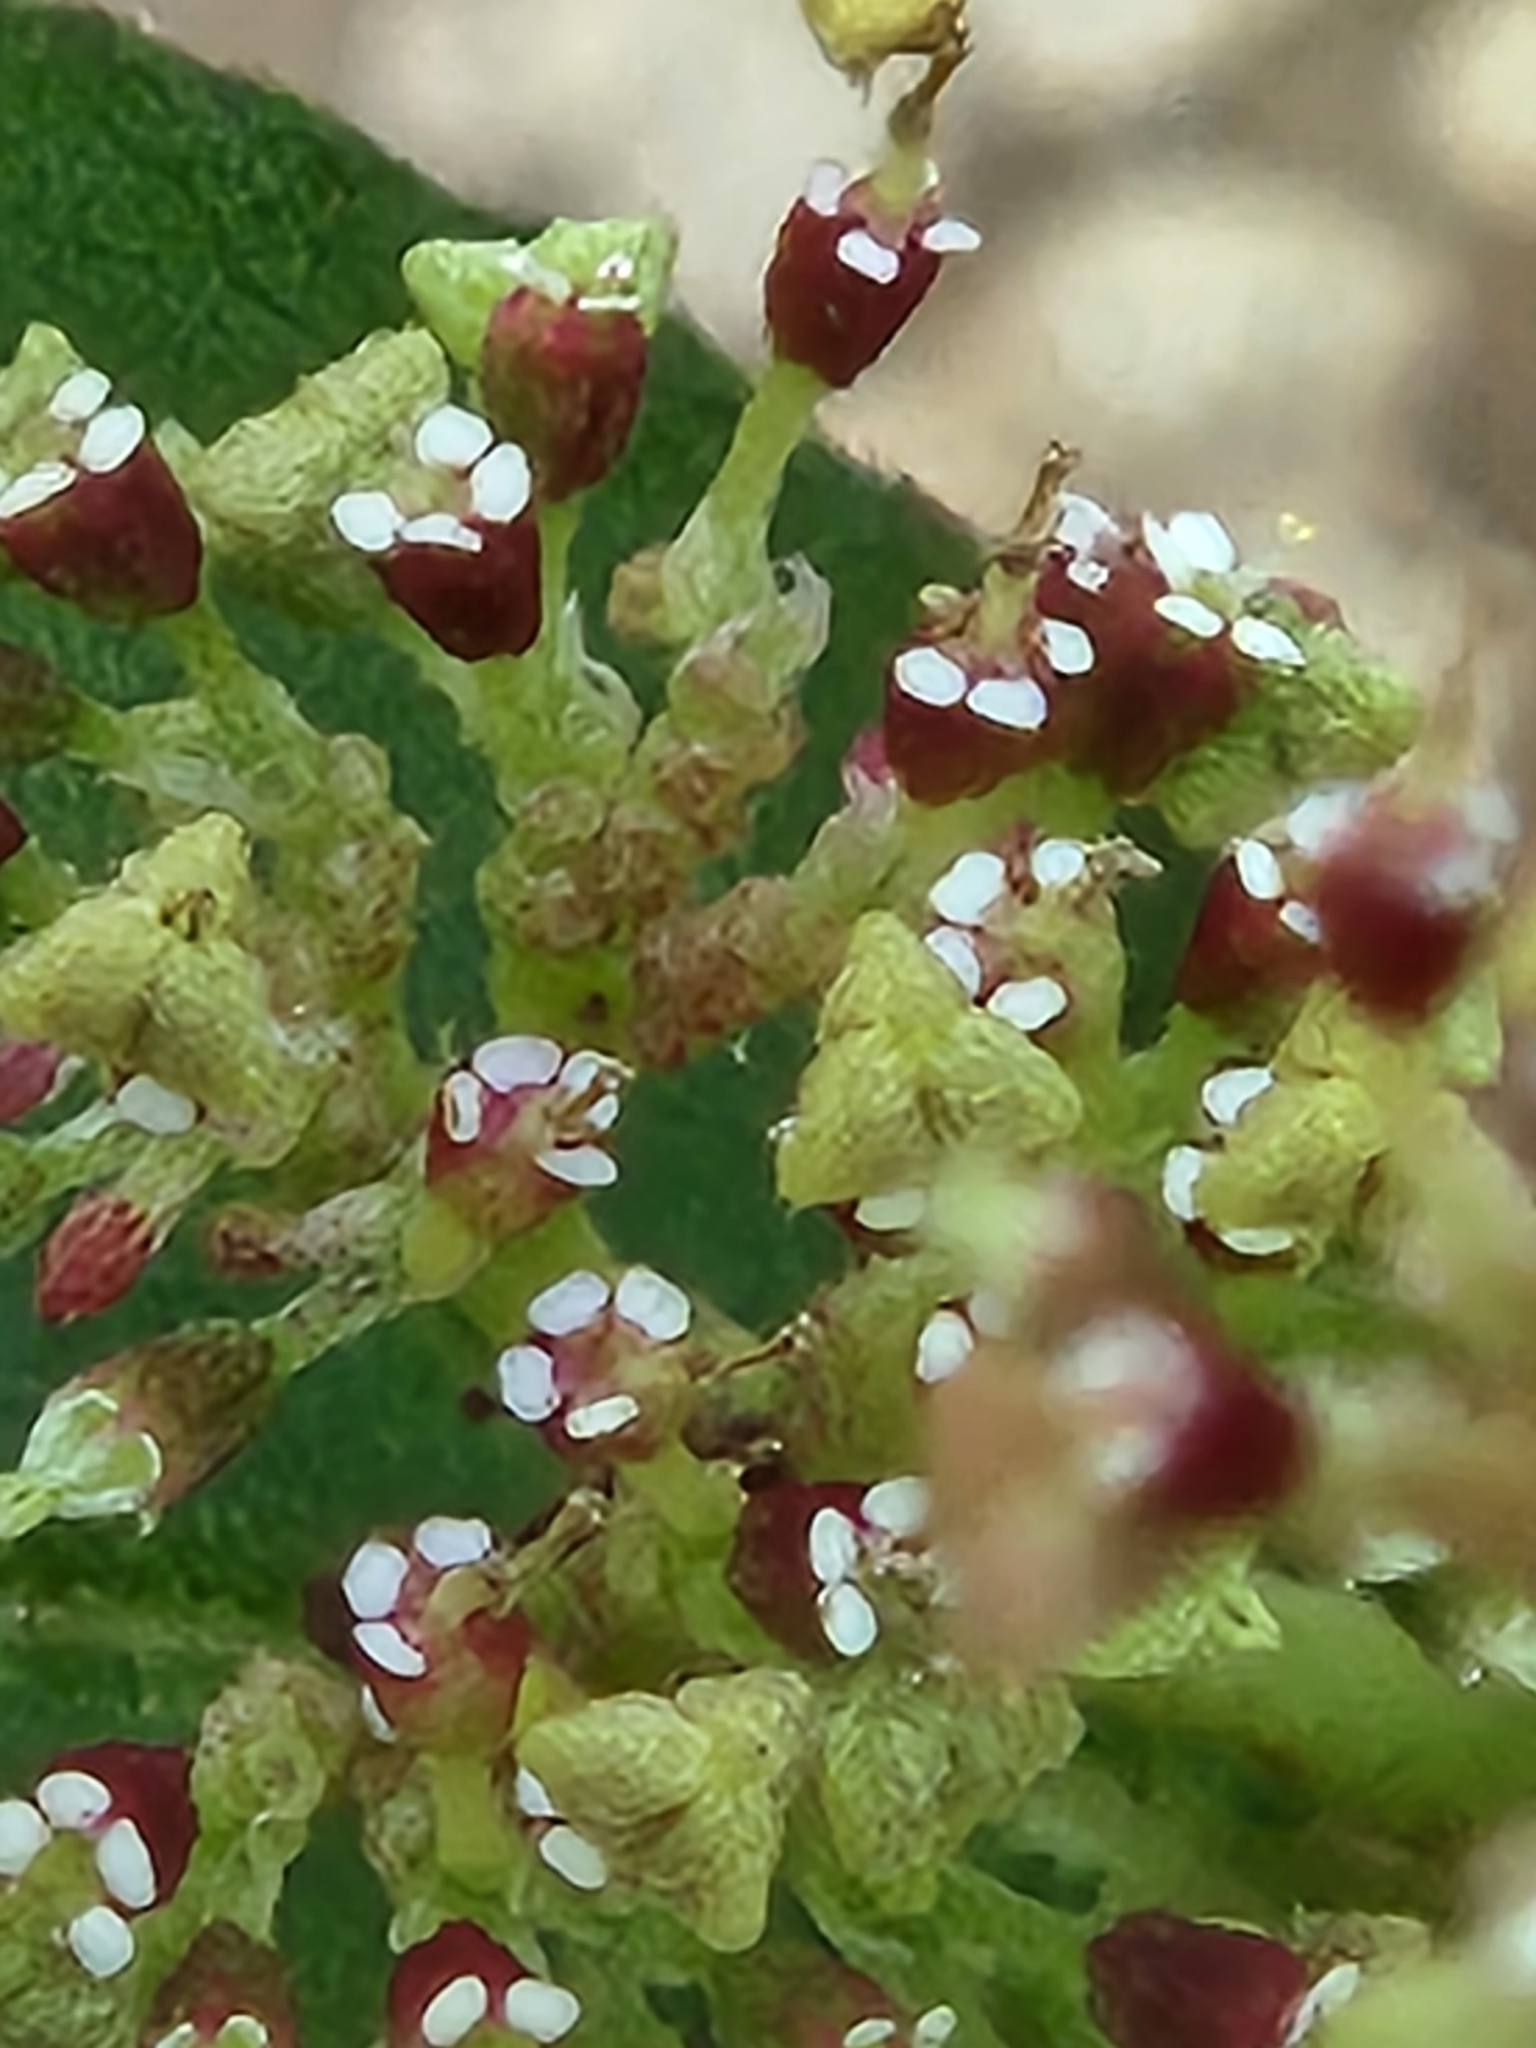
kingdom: Plantae
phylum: Tracheophyta
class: Magnoliopsida
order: Malpighiales
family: Euphorbiaceae
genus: Euphorbia
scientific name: Euphorbia hirta
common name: Pillpod sandmat
